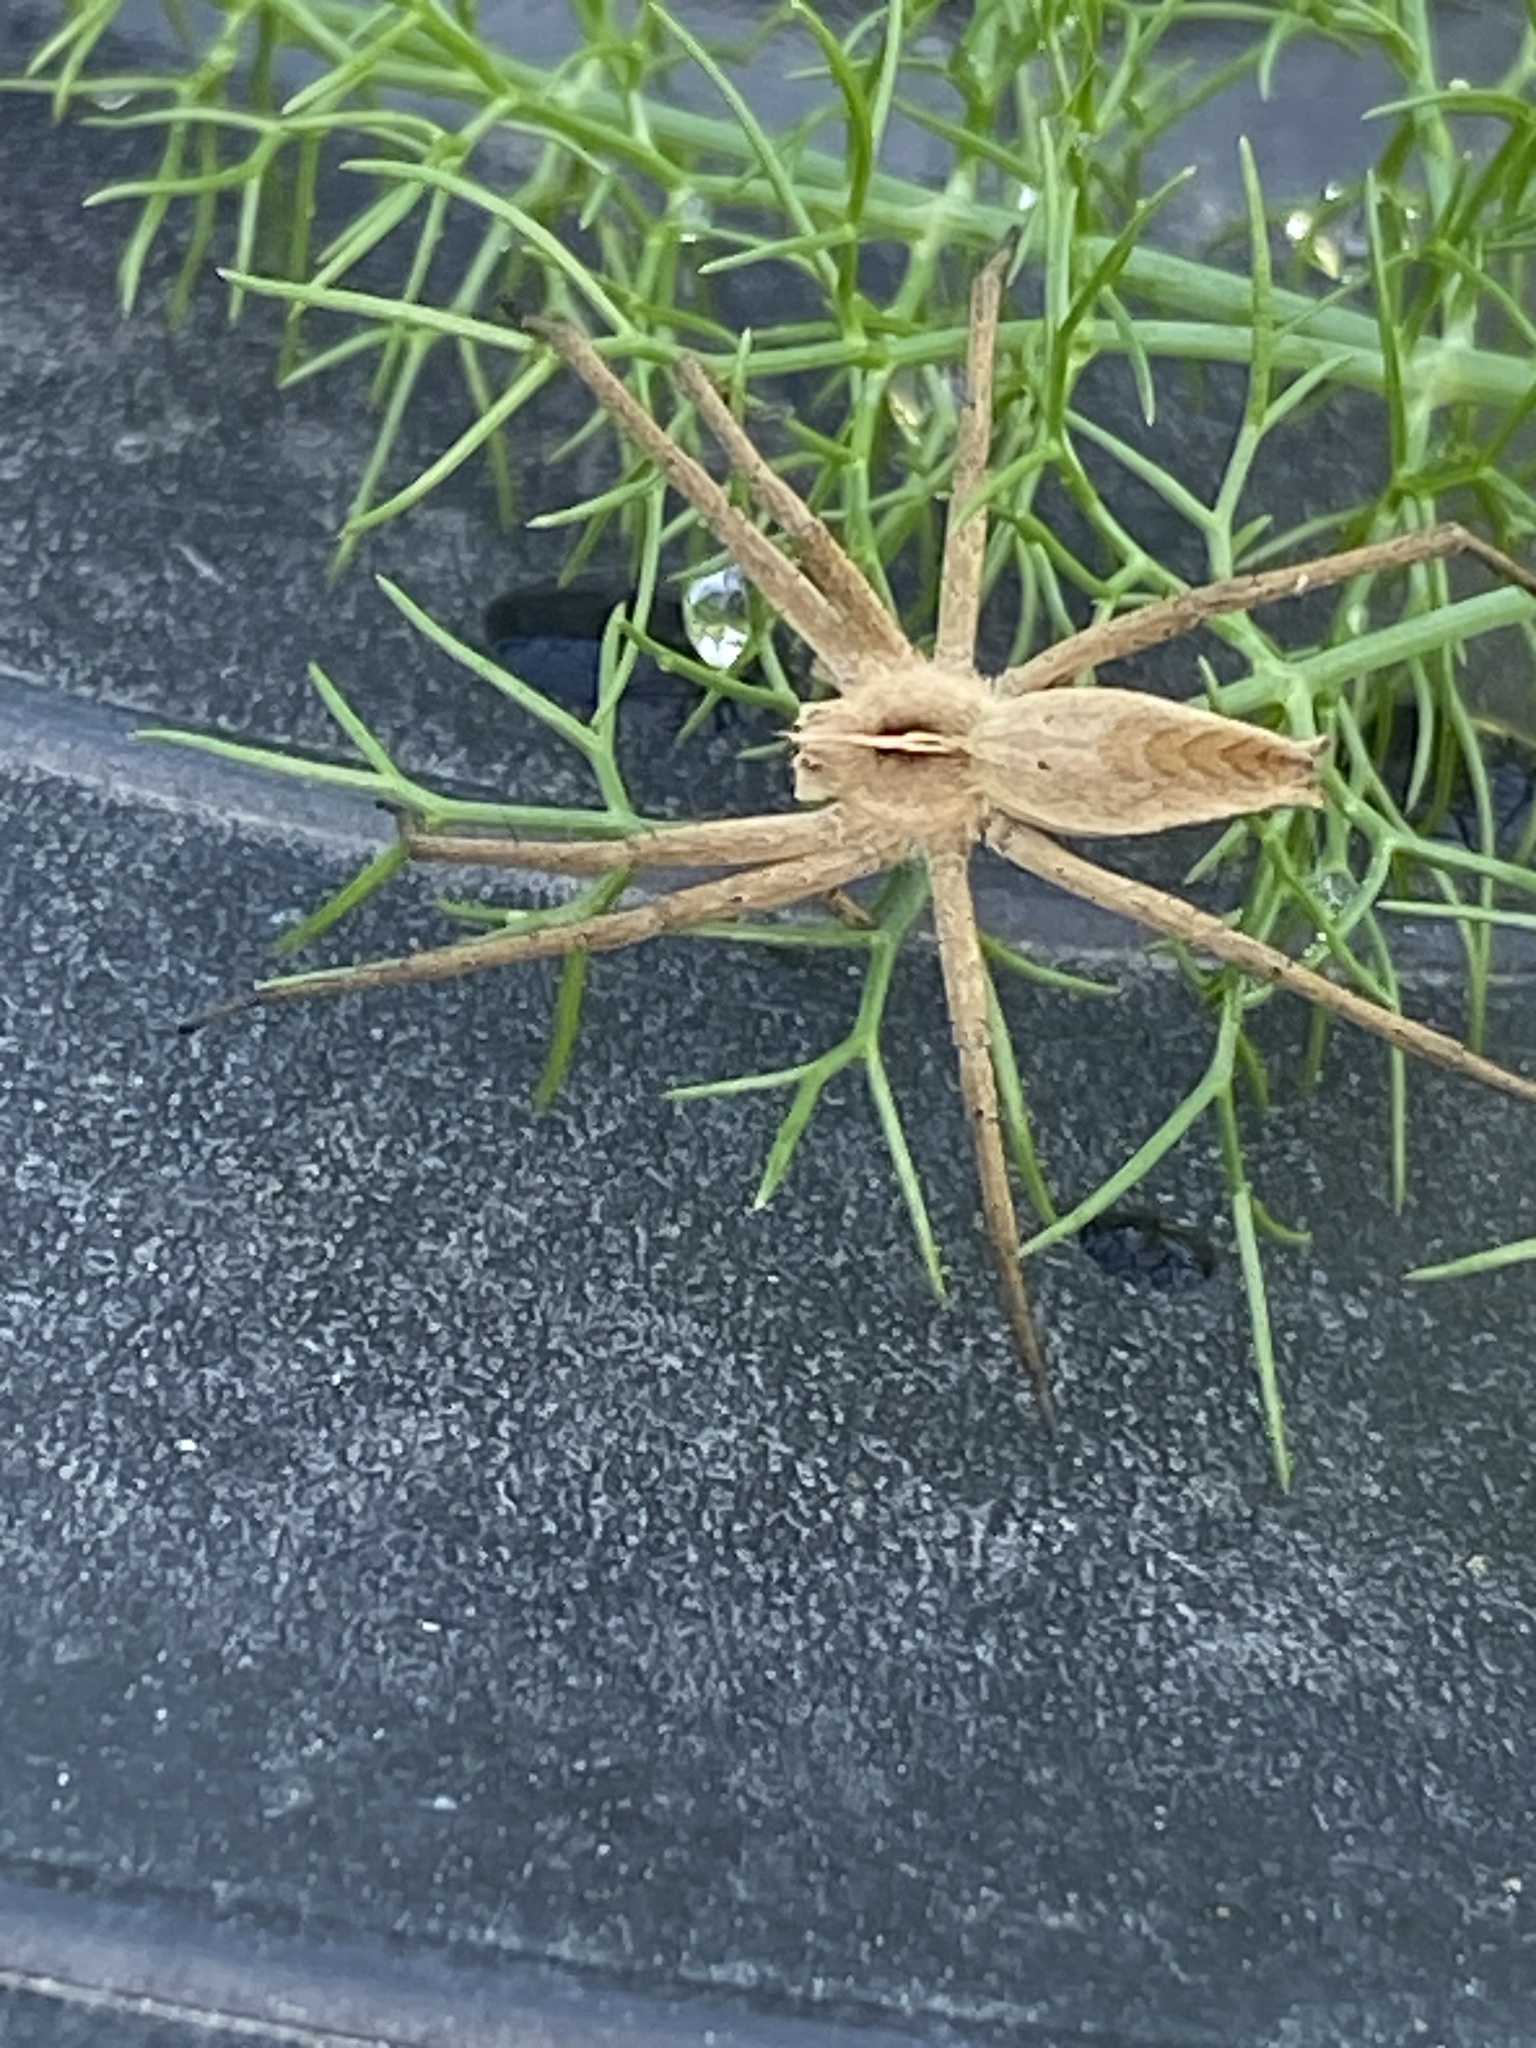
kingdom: Animalia
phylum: Arthropoda
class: Arachnida
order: Araneae
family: Pisauridae
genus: Pisaura
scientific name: Pisaura mirabilis
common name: Tent spider
